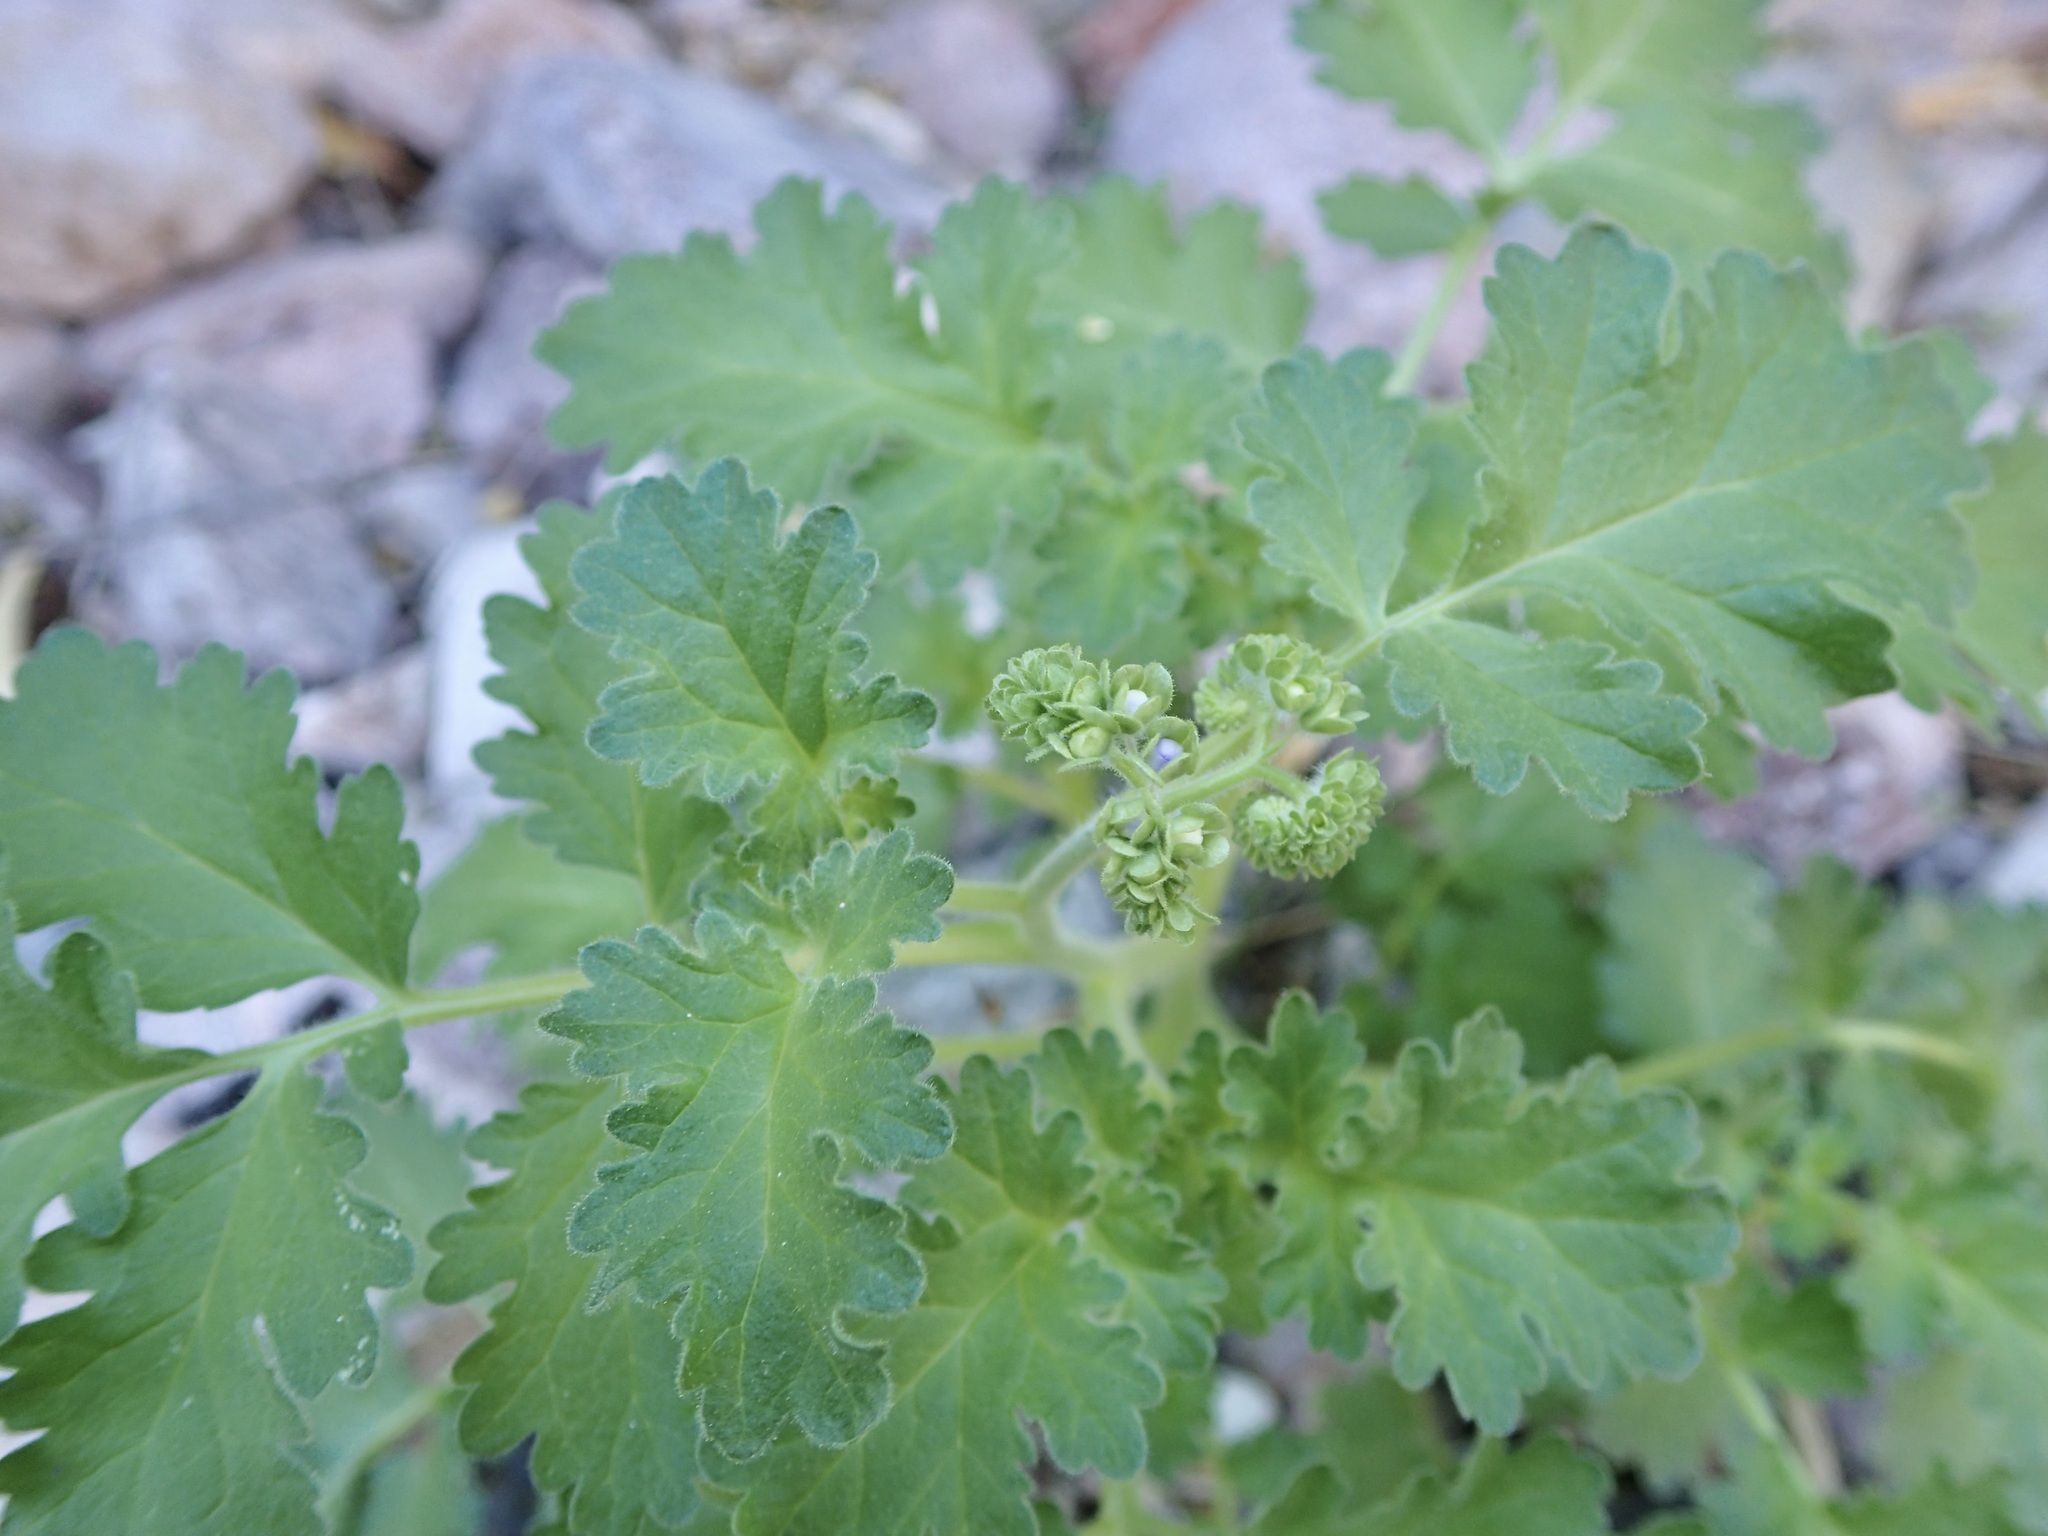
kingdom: Plantae
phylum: Tracheophyta
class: Magnoliopsida
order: Boraginales
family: Hydrophyllaceae
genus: Phacelia
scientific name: Phacelia scariosa
